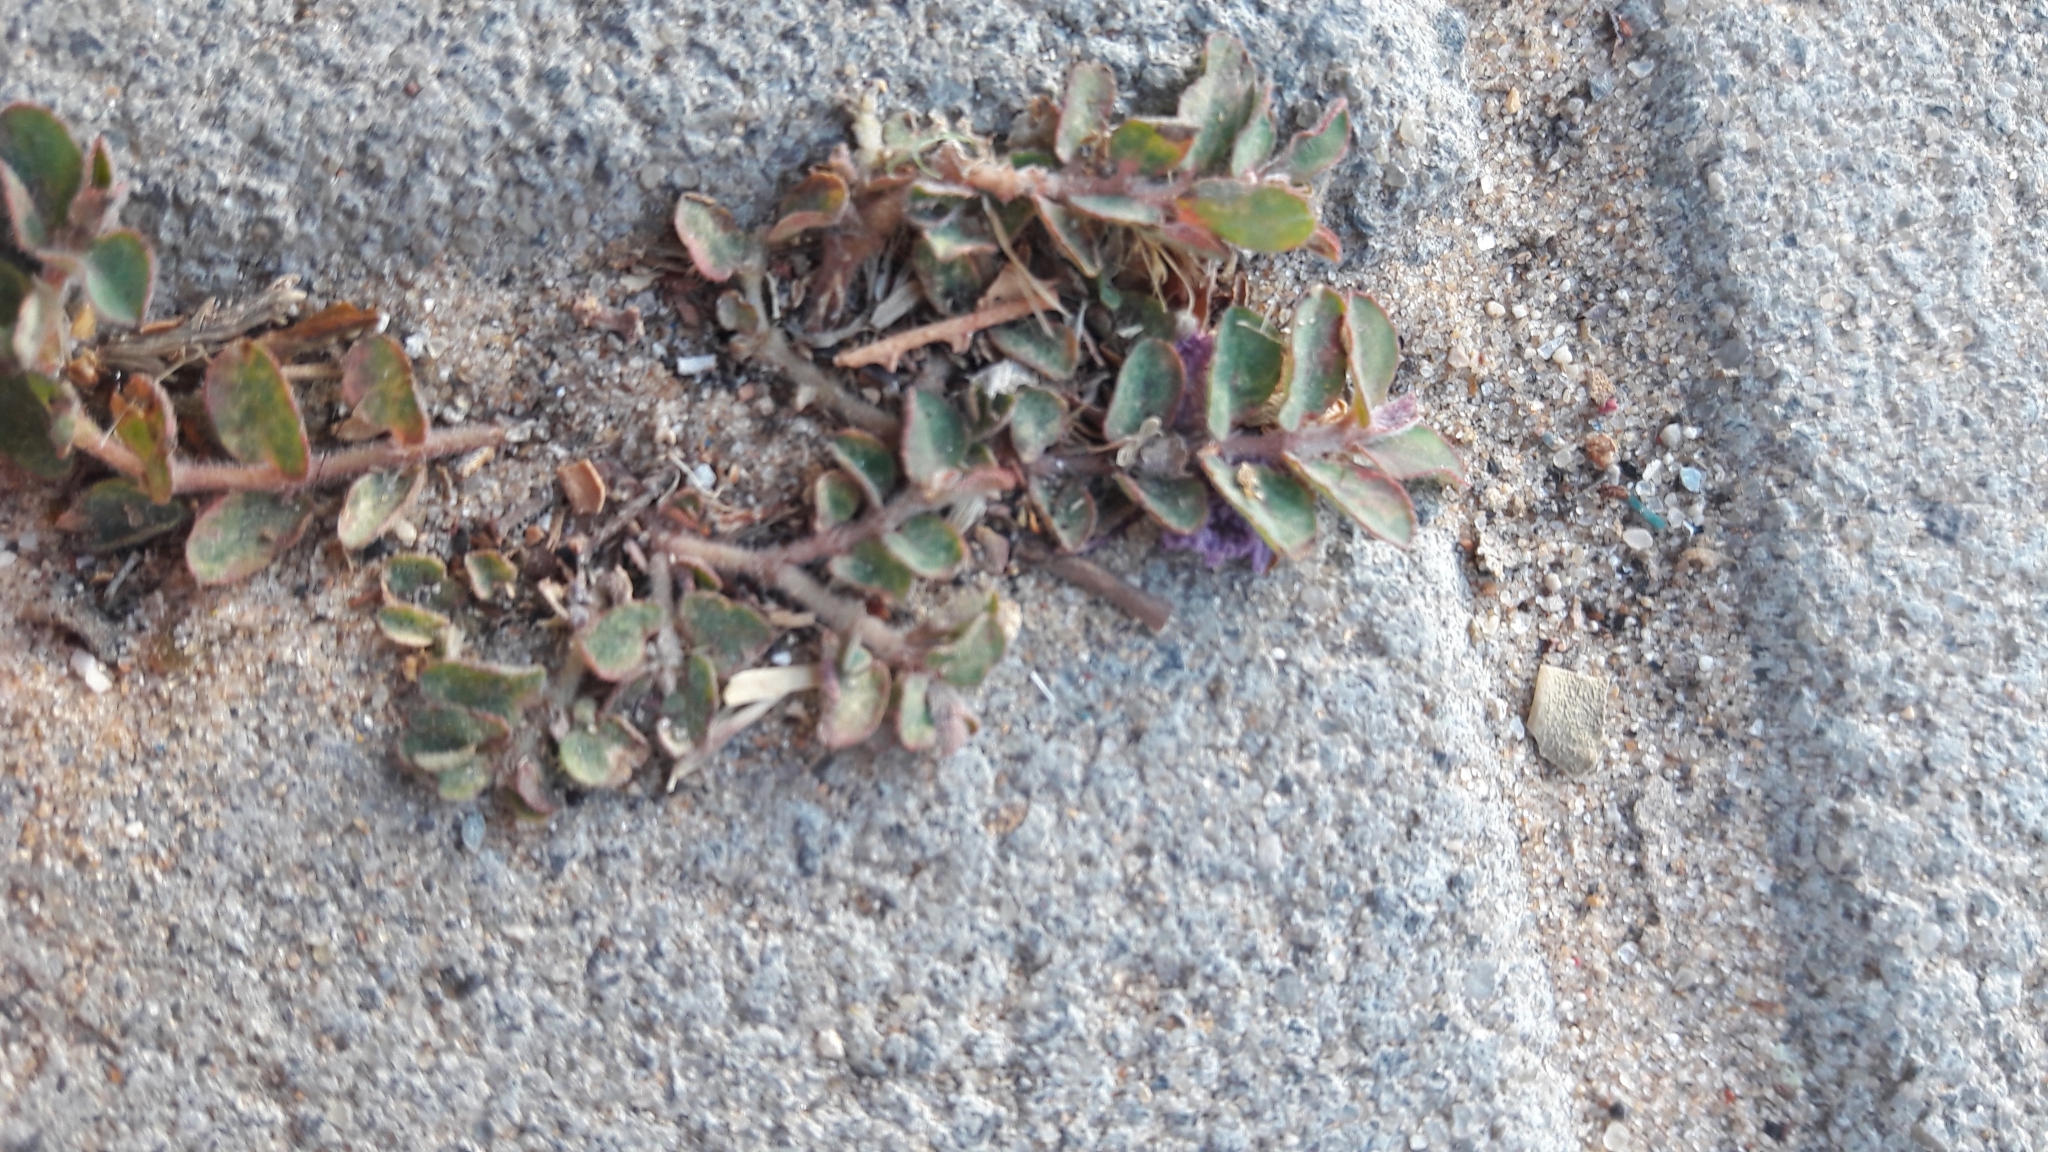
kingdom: Plantae
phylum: Tracheophyta
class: Magnoliopsida
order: Malpighiales
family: Euphorbiaceae
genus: Euphorbia
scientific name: Euphorbia maculata
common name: Spotted spurge
